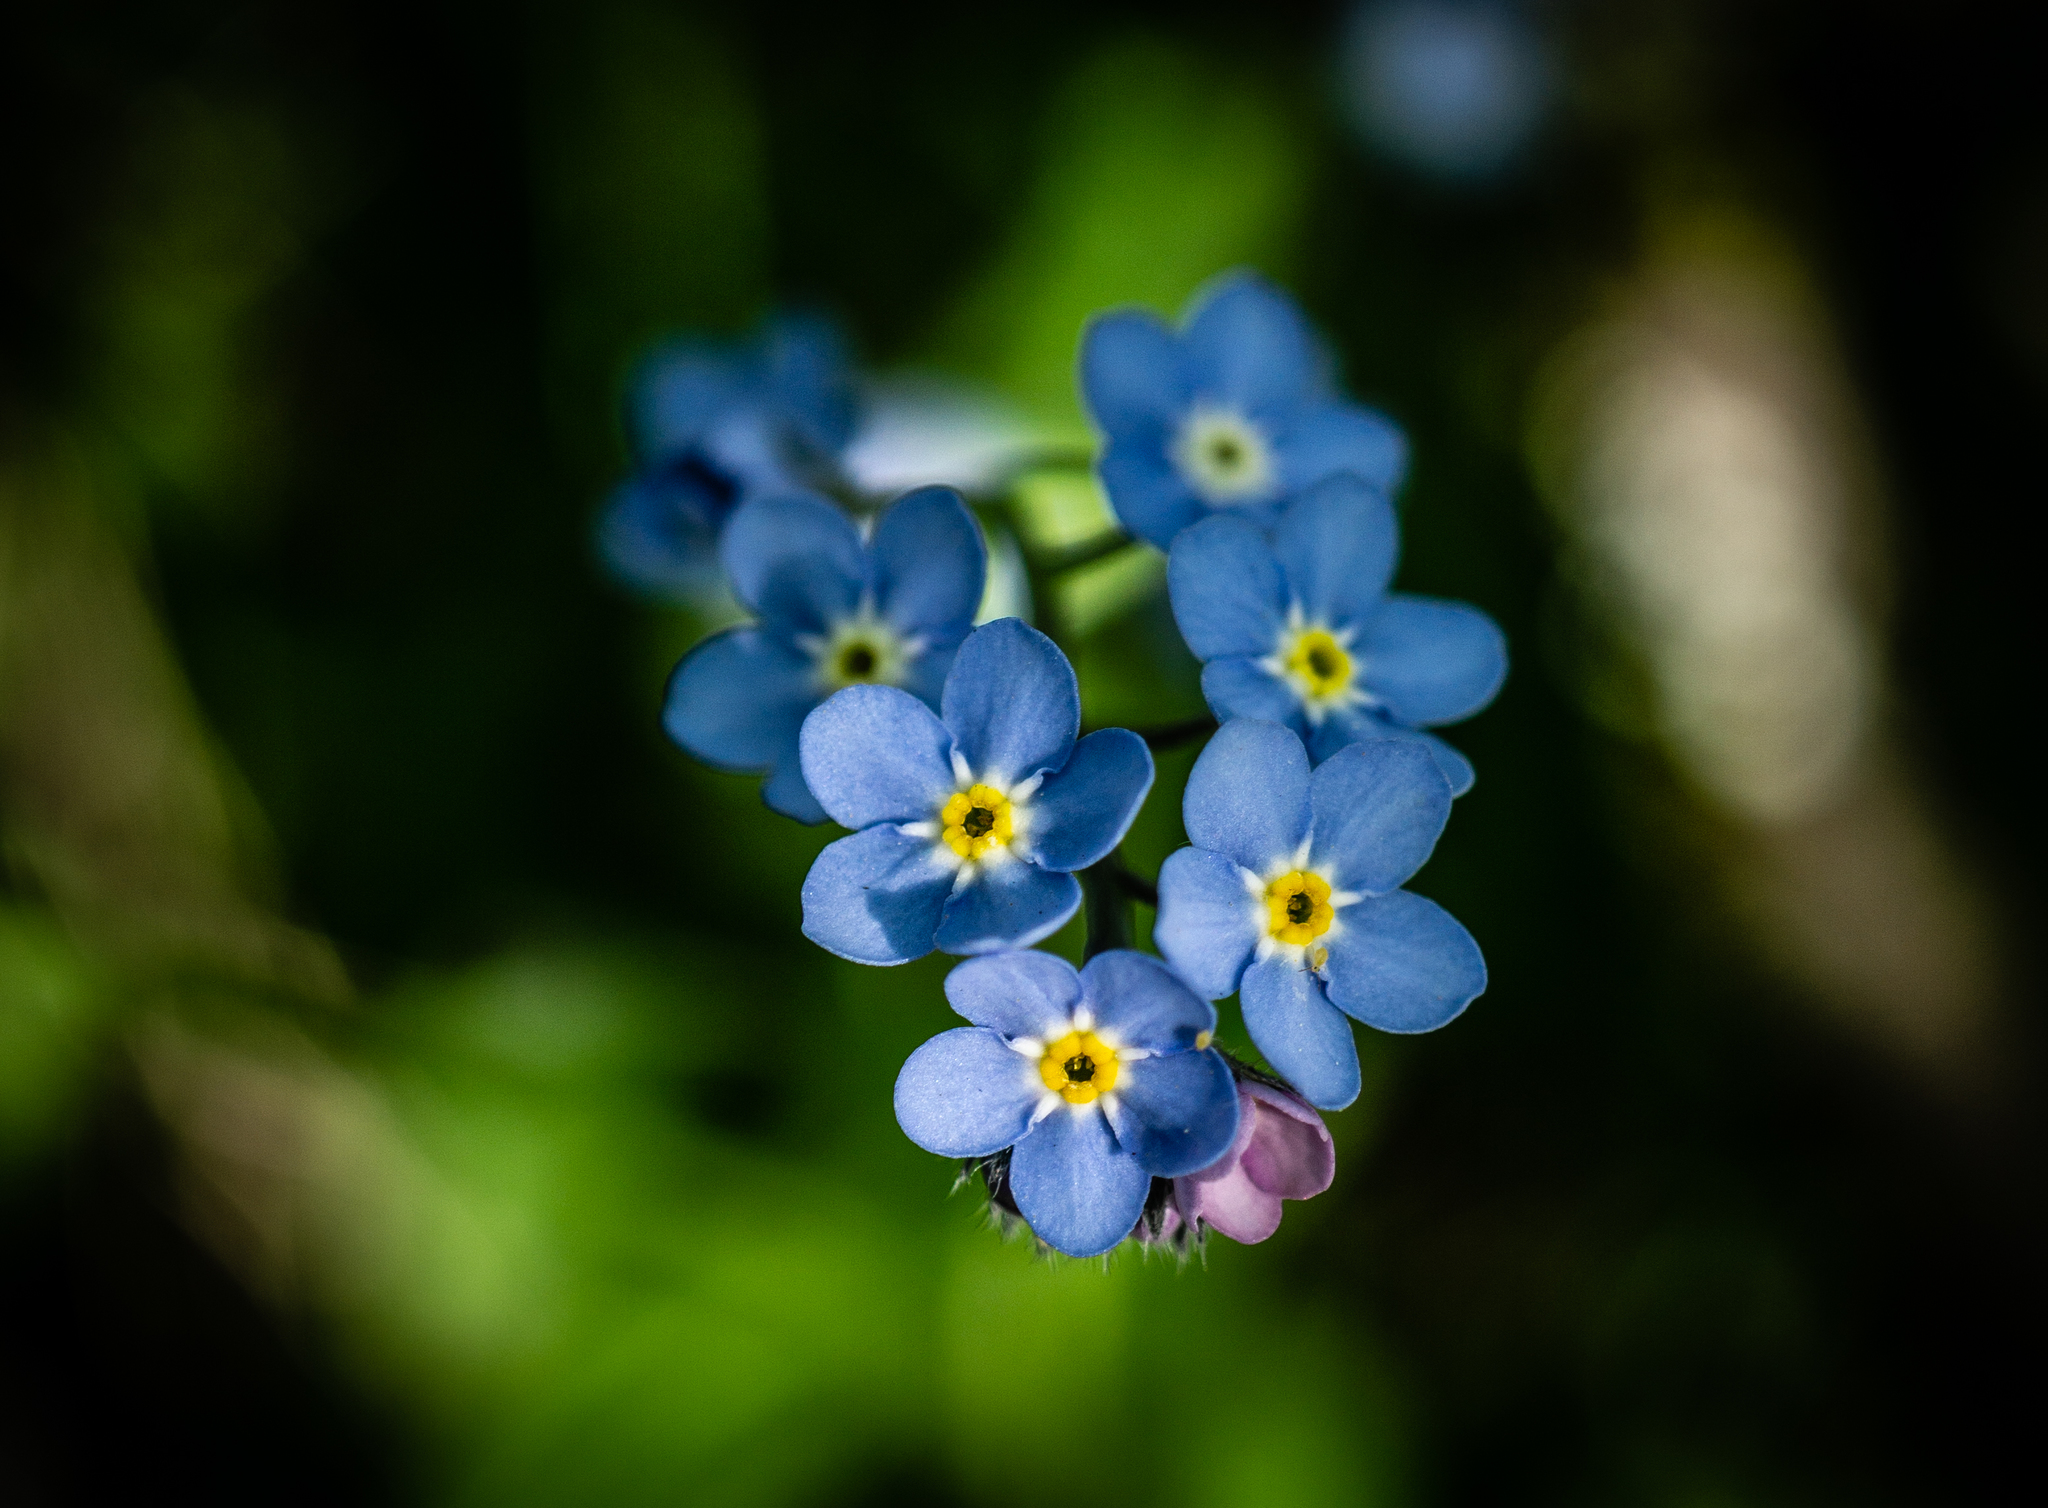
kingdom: Plantae
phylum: Tracheophyta
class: Magnoliopsida
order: Boraginales
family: Boraginaceae
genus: Myosotis
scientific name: Myosotis laxa
